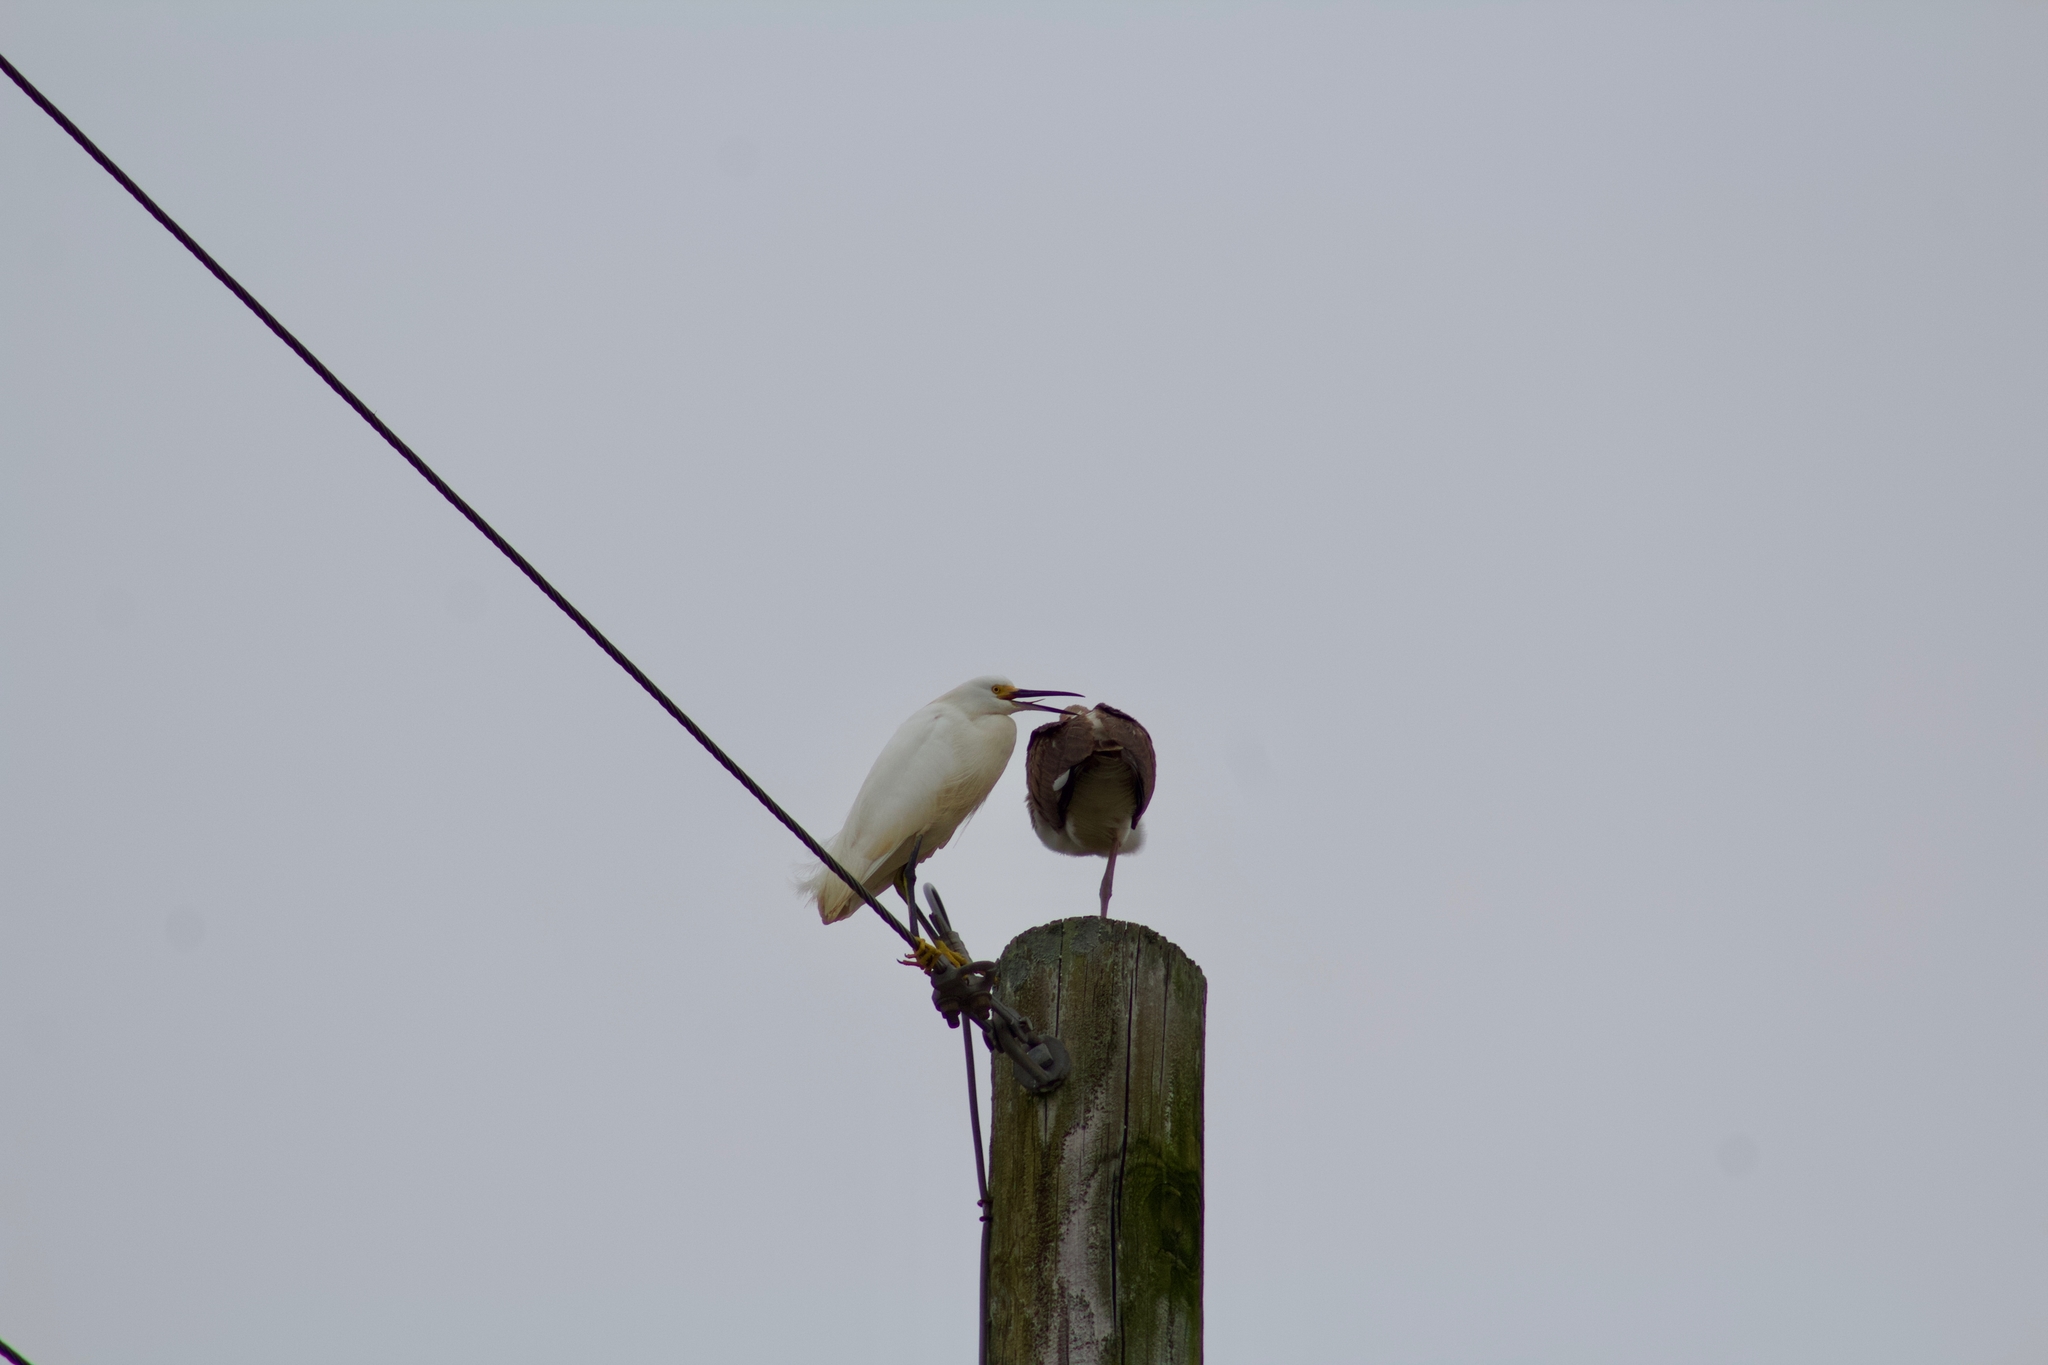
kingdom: Animalia
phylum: Chordata
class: Aves
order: Pelecaniformes
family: Ardeidae
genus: Egretta
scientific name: Egretta thula
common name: Snowy egret
